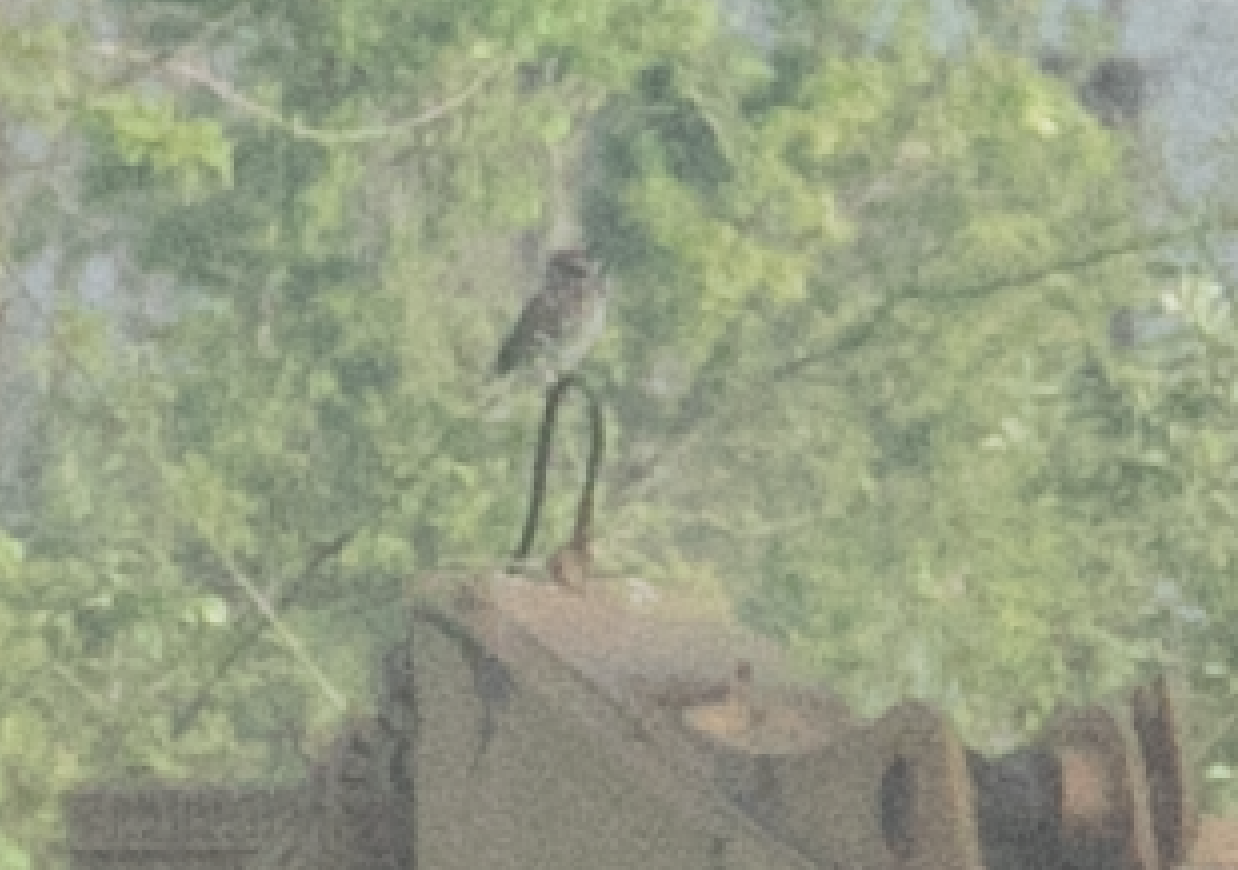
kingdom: Animalia
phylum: Chordata
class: Aves
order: Strigiformes
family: Strigidae
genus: Athene
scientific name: Athene noctua
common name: Little owl
